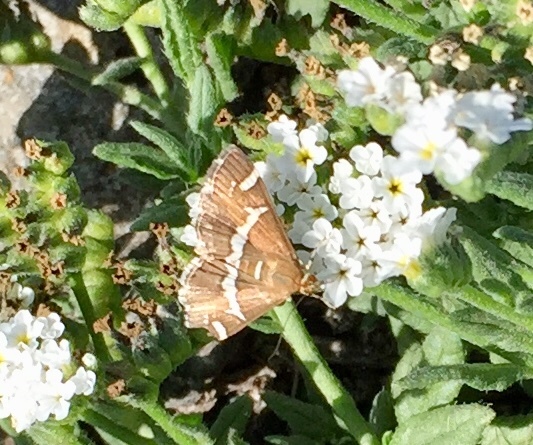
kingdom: Animalia
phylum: Arthropoda
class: Insecta
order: Lepidoptera
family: Crambidae
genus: Spoladea
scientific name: Spoladea recurvalis
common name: Beet webworm moth
